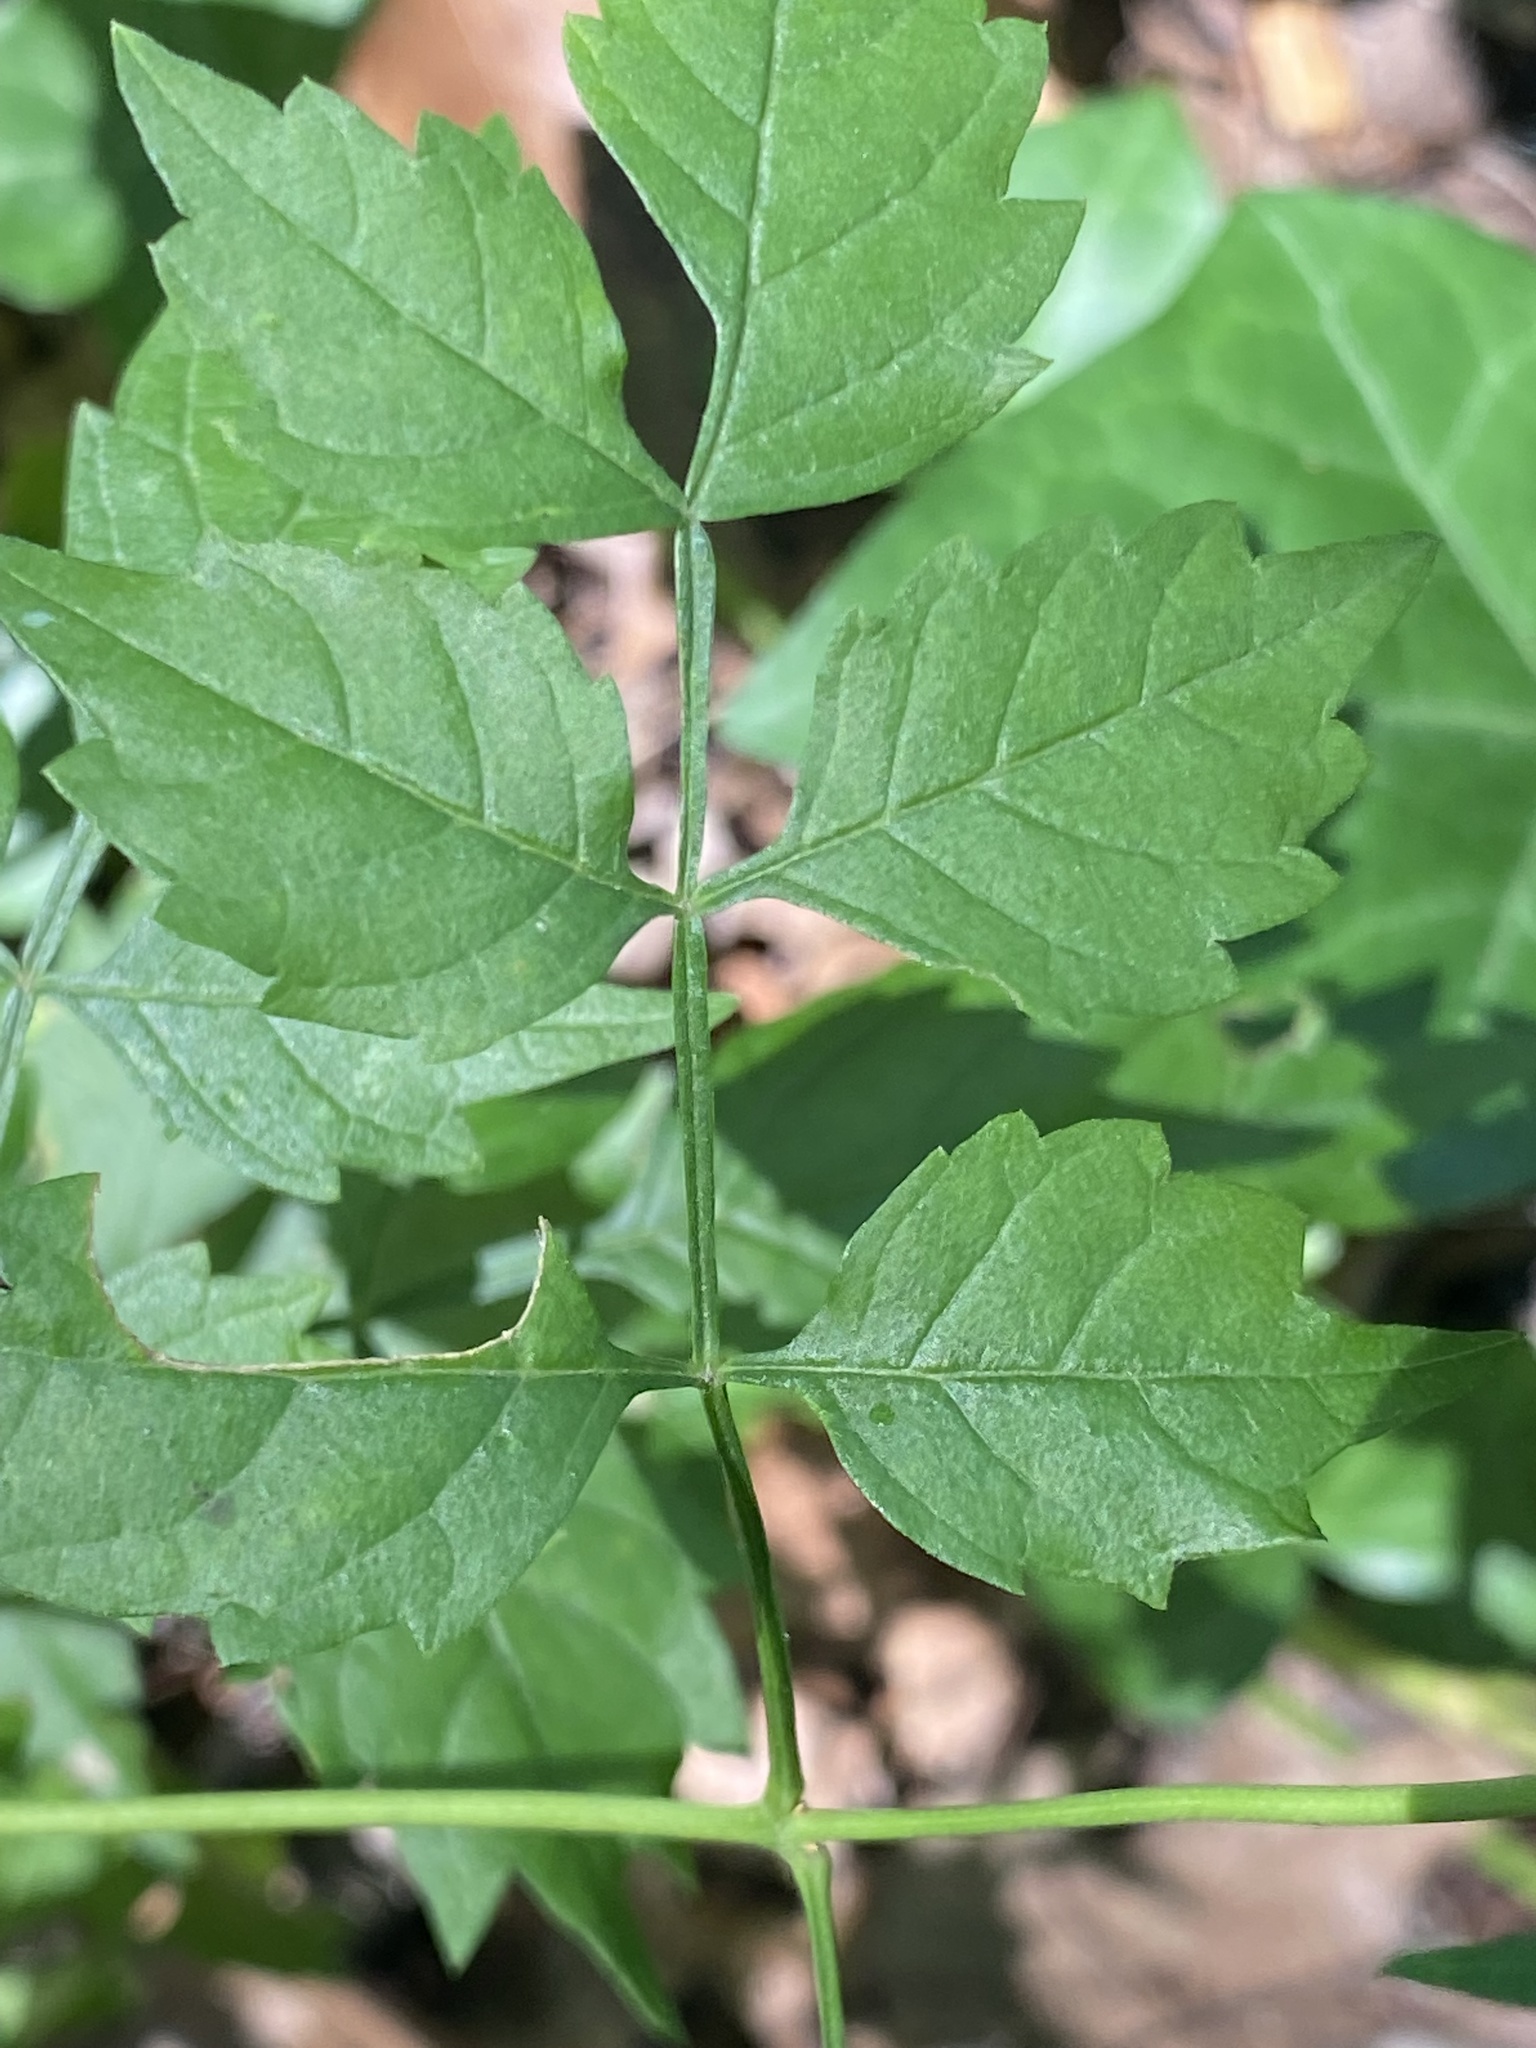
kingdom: Plantae
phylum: Tracheophyta
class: Magnoliopsida
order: Lamiales
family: Bignoniaceae
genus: Campsis
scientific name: Campsis radicans
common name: Trumpet-creeper
